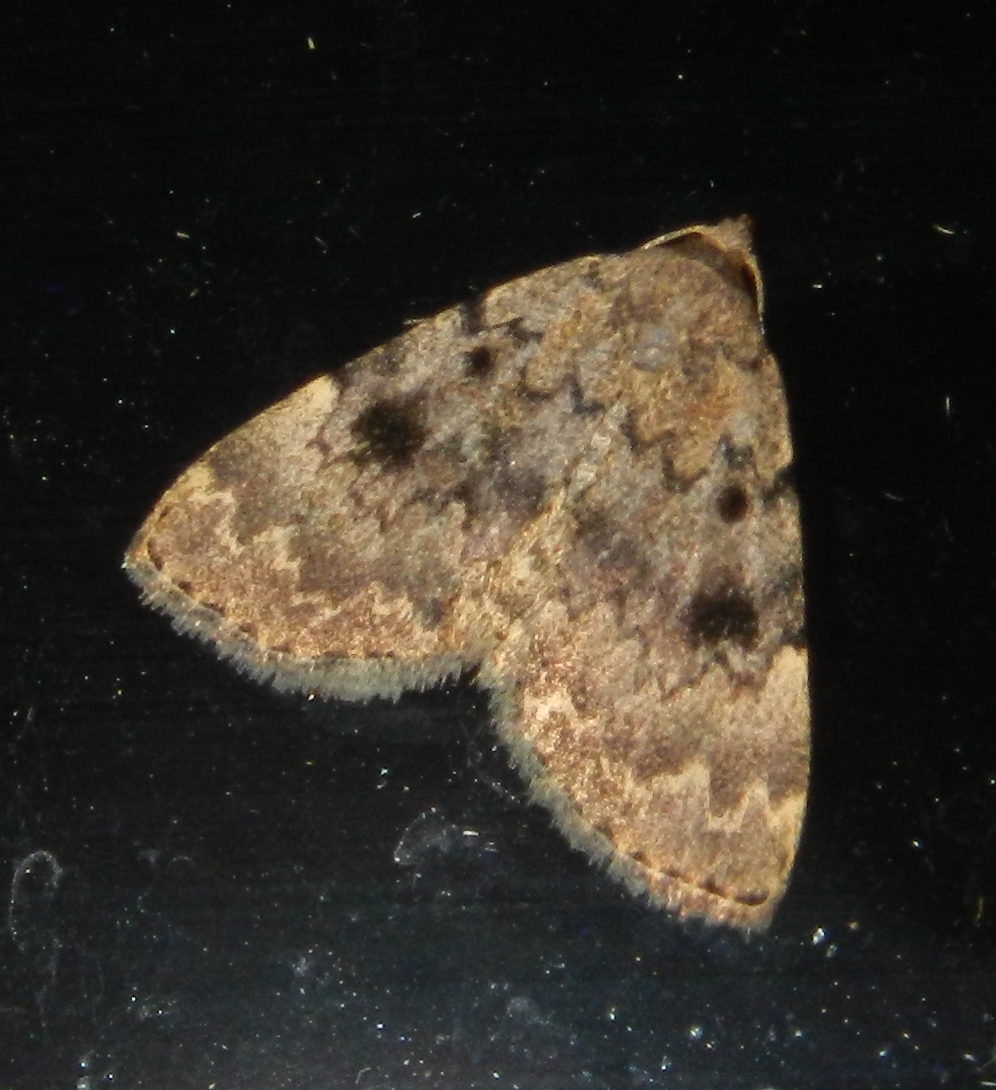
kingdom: Animalia
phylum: Arthropoda
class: Insecta
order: Lepidoptera
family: Erebidae
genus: Idia
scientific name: Idia aemula
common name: Common idia moth
